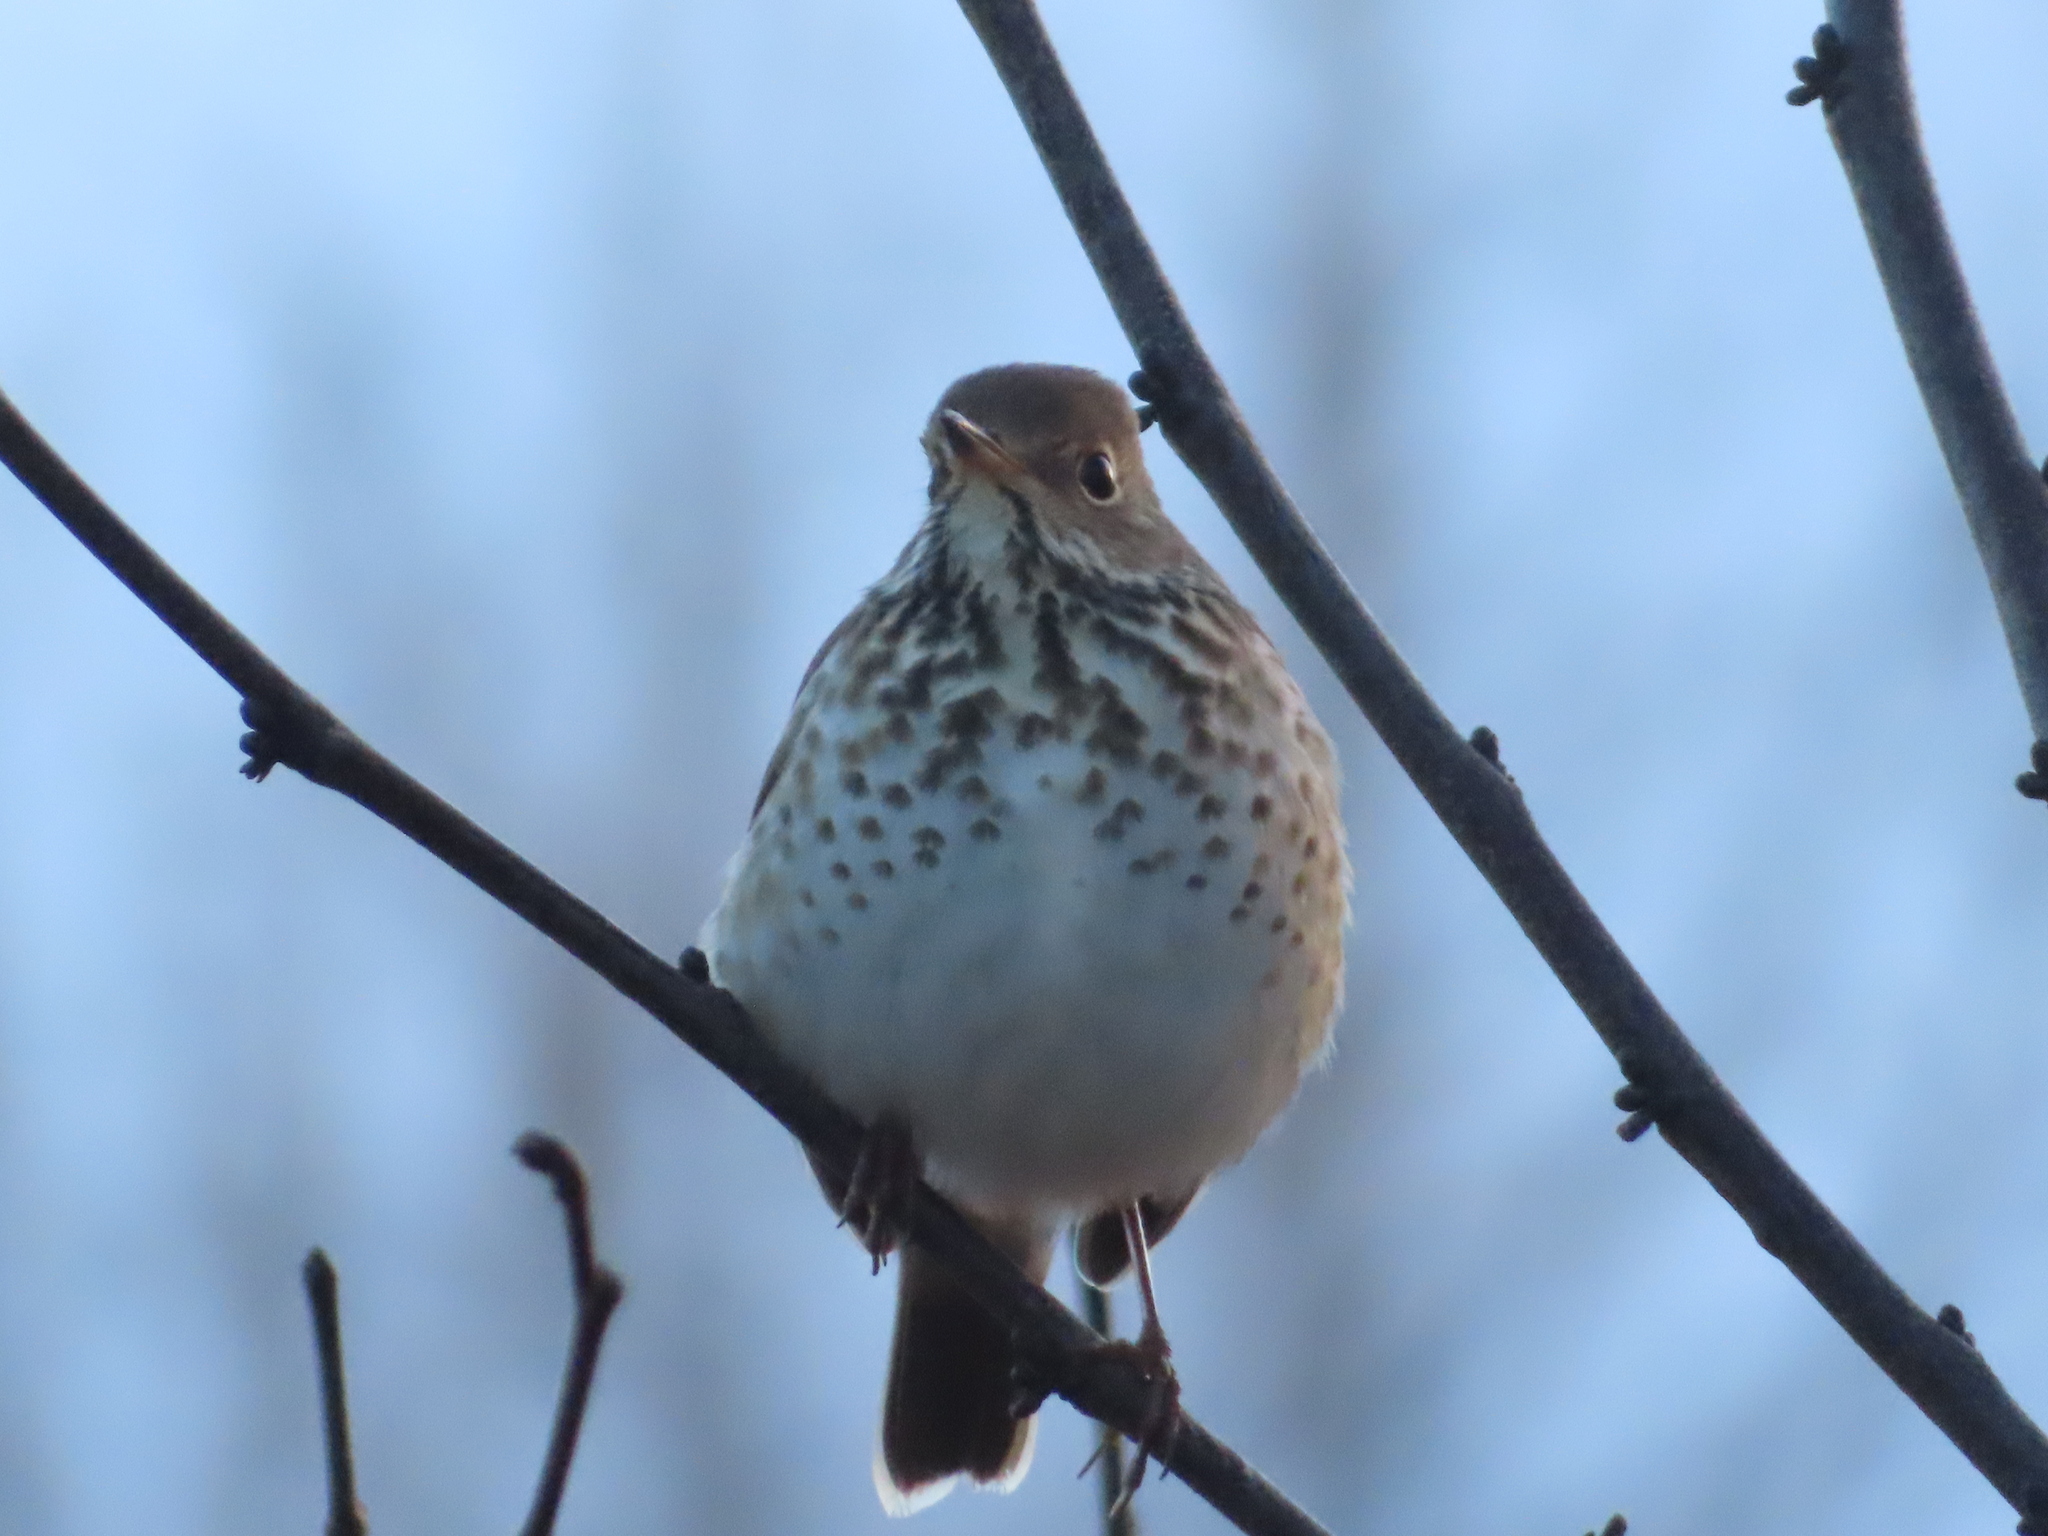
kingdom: Animalia
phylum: Chordata
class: Aves
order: Passeriformes
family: Turdidae
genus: Catharus
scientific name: Catharus guttatus
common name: Hermit thrush
